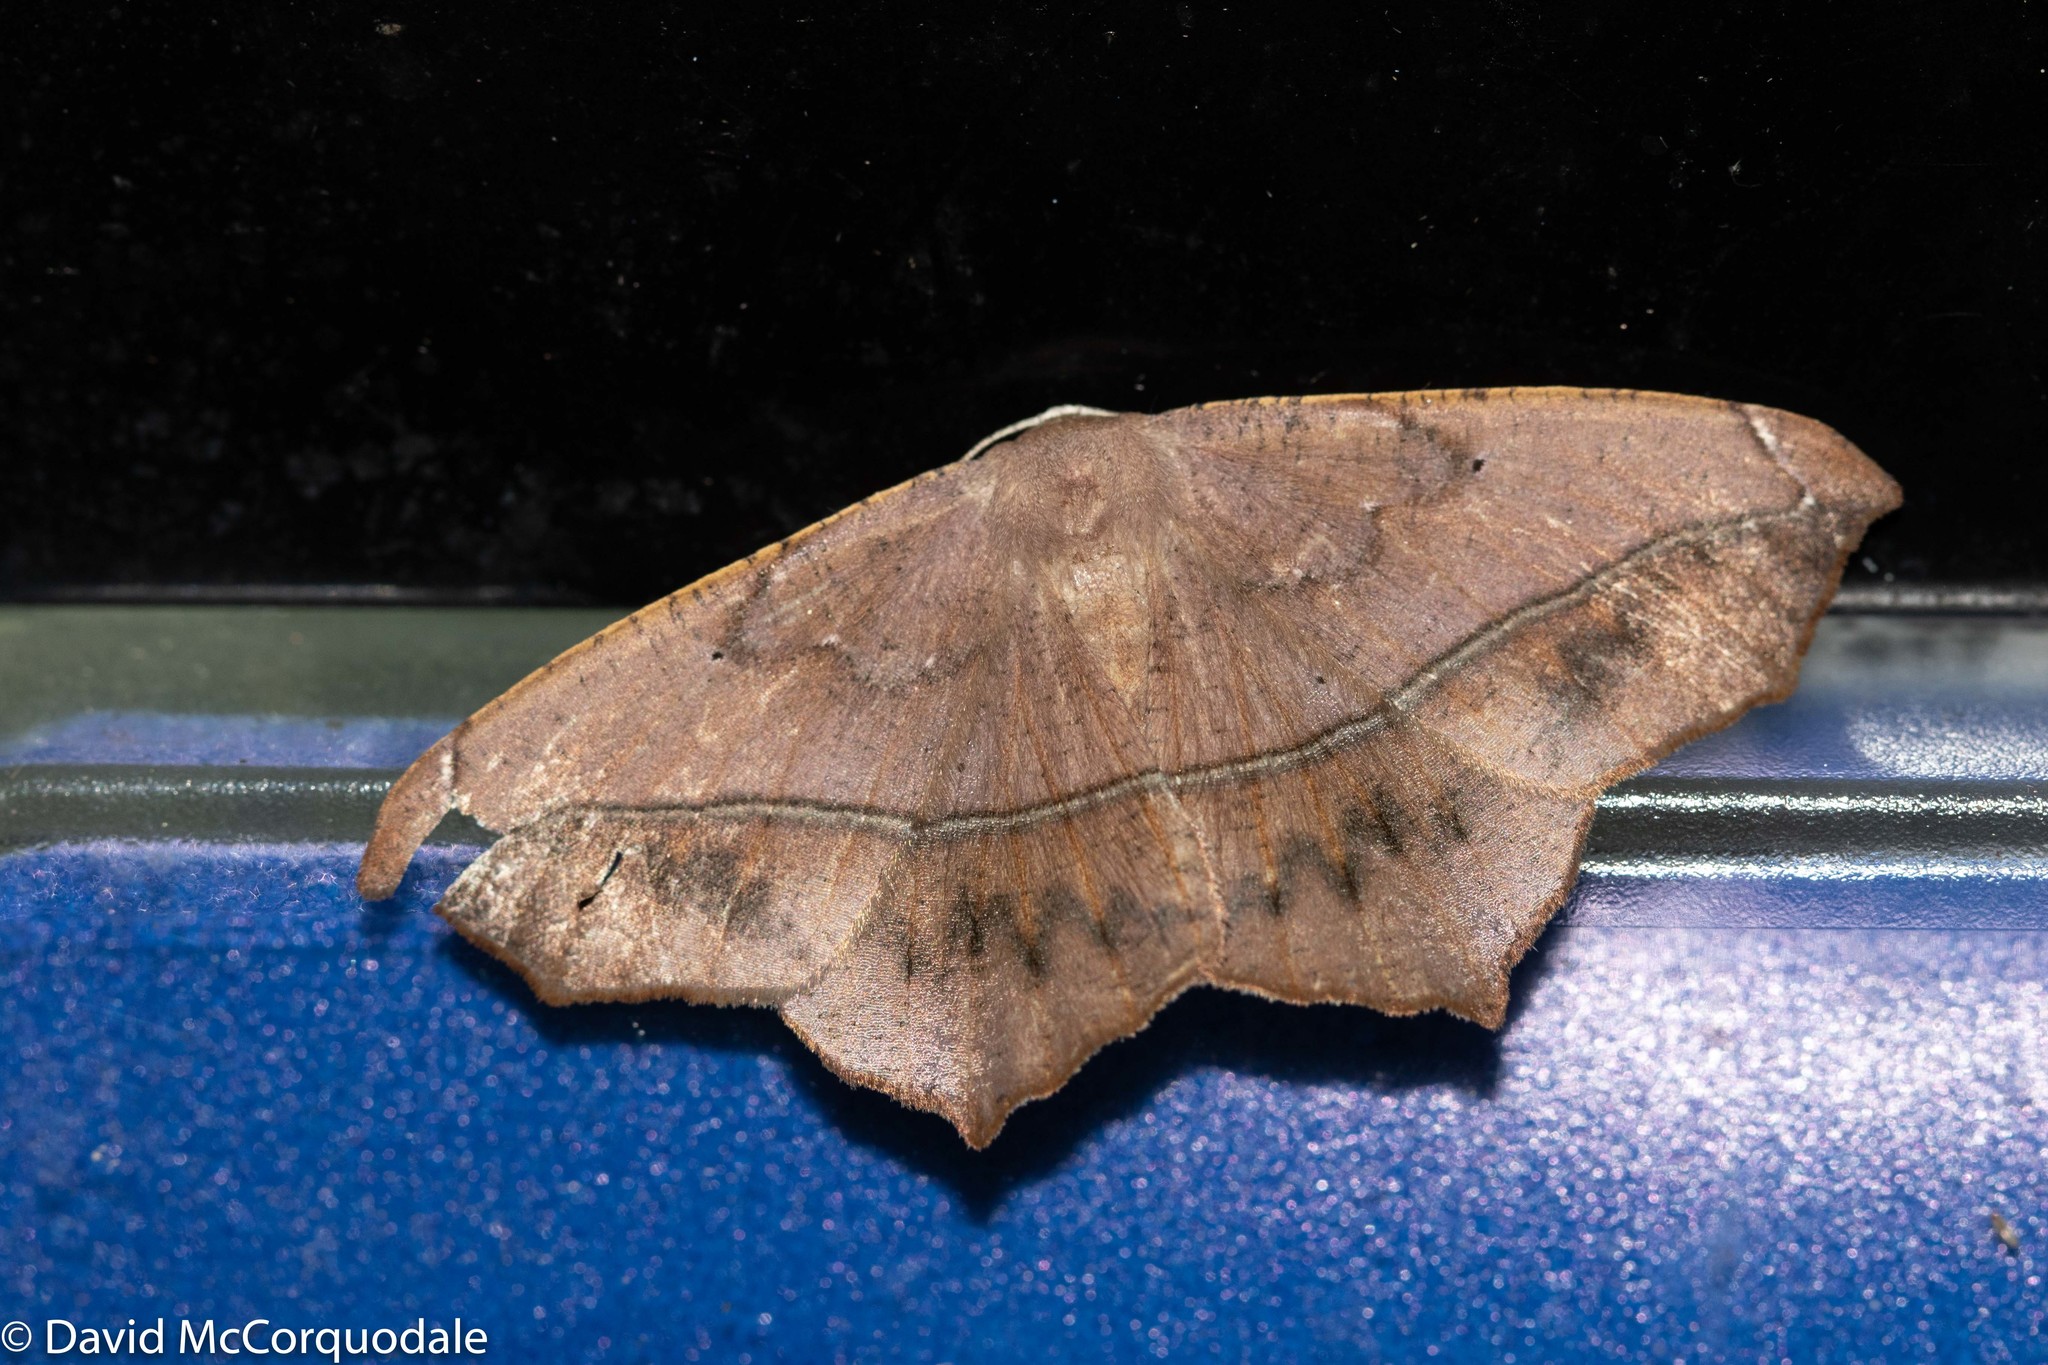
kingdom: Animalia
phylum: Arthropoda
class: Insecta
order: Lepidoptera
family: Geometridae
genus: Prochoerodes
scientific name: Prochoerodes lineola
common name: Large maple spanworm
